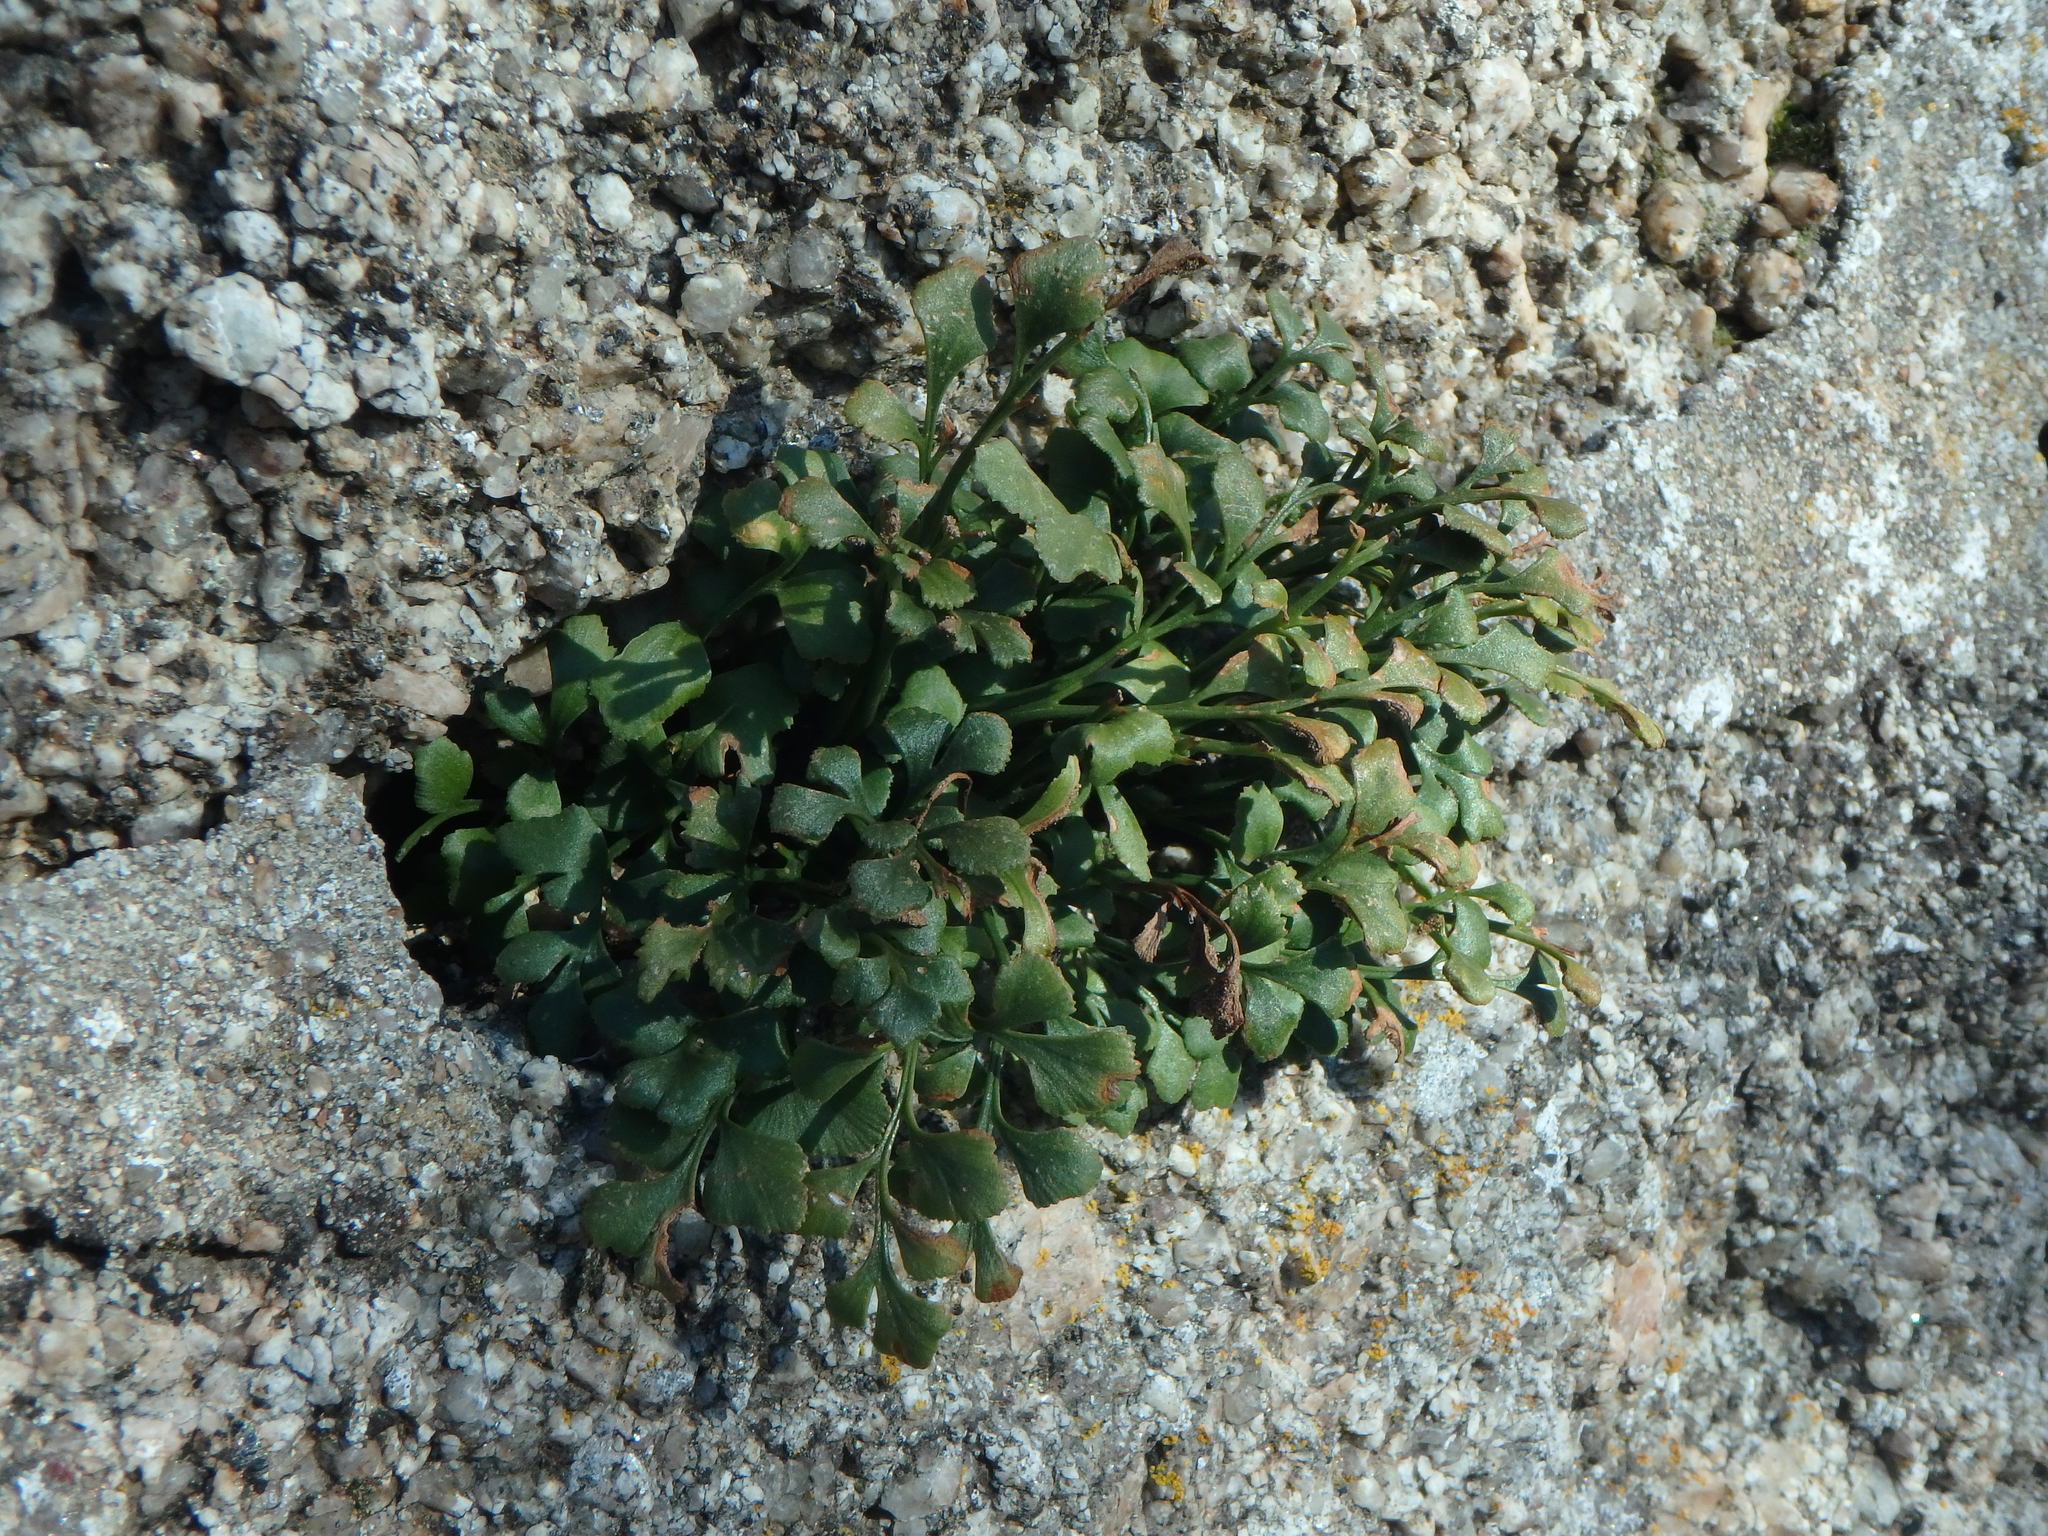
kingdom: Plantae
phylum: Tracheophyta
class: Polypodiopsida
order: Polypodiales
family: Aspleniaceae
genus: Asplenium
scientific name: Asplenium ruta-muraria
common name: Wall-rue
